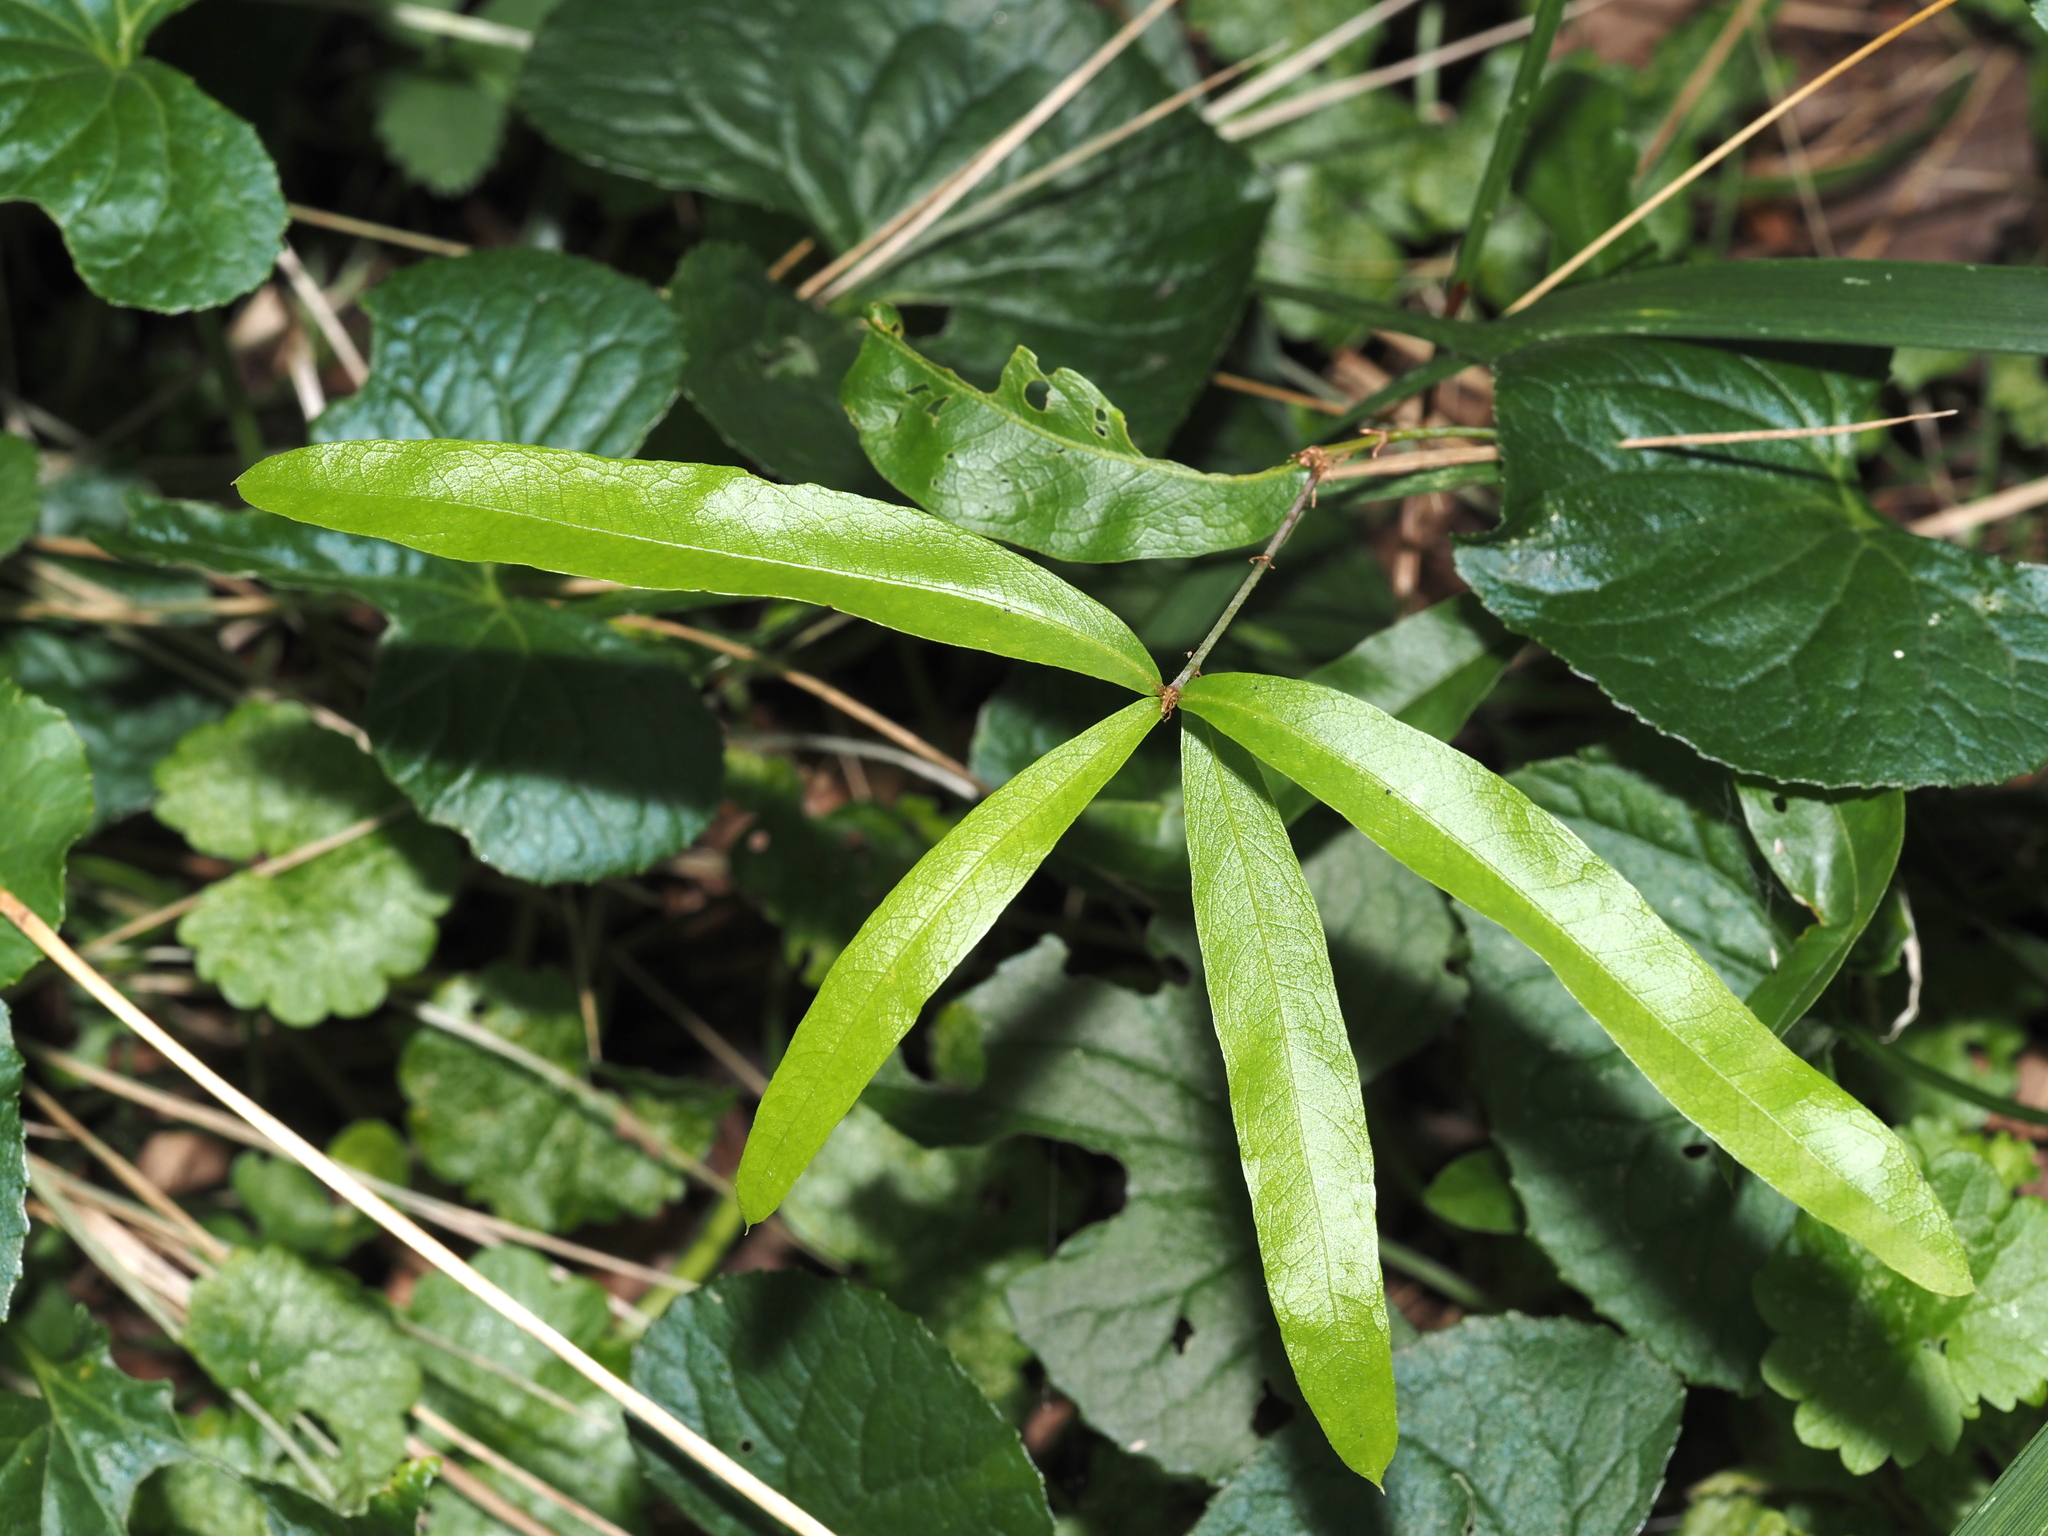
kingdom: Plantae
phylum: Tracheophyta
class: Magnoliopsida
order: Fagales
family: Fagaceae
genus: Quercus
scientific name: Quercus phellos
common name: Willow oak
